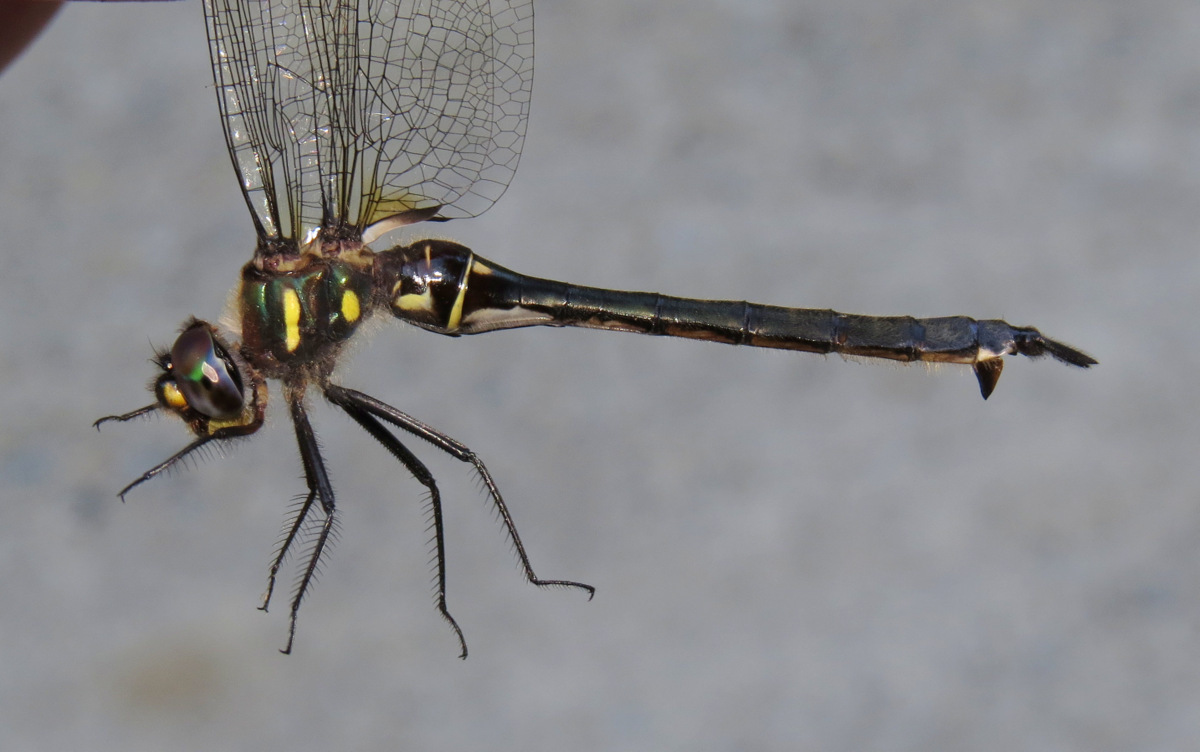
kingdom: Animalia
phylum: Arthropoda
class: Insecta
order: Odonata
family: Corduliidae
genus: Somatochlora
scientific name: Somatochlora elongata
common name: Ski-tipped emerald
